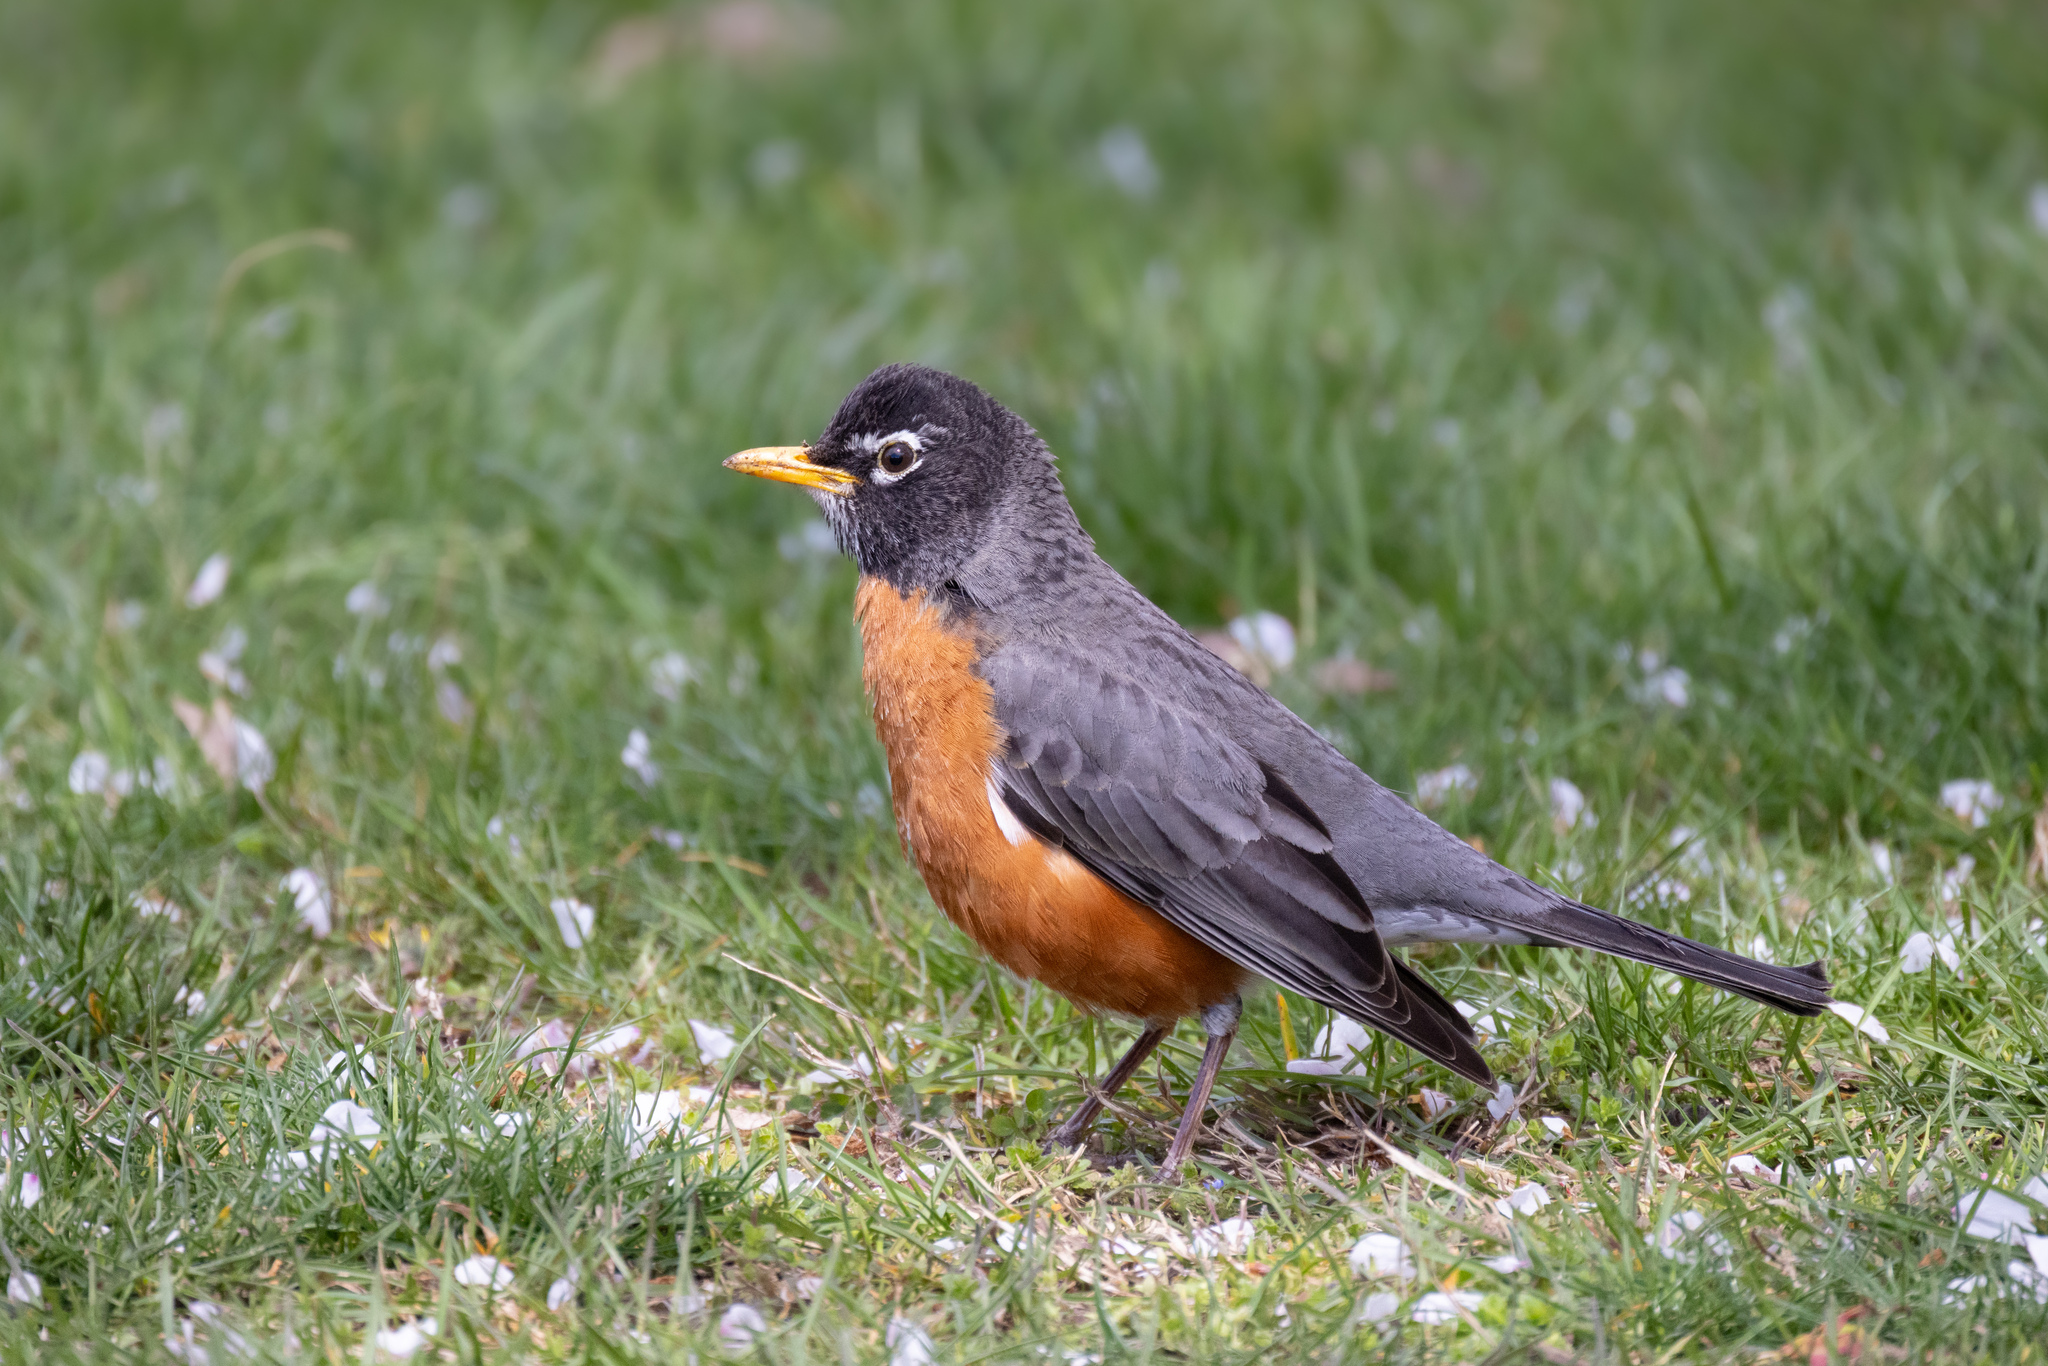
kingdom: Animalia
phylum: Chordata
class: Aves
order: Passeriformes
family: Turdidae
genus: Turdus
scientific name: Turdus migratorius
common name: American robin
